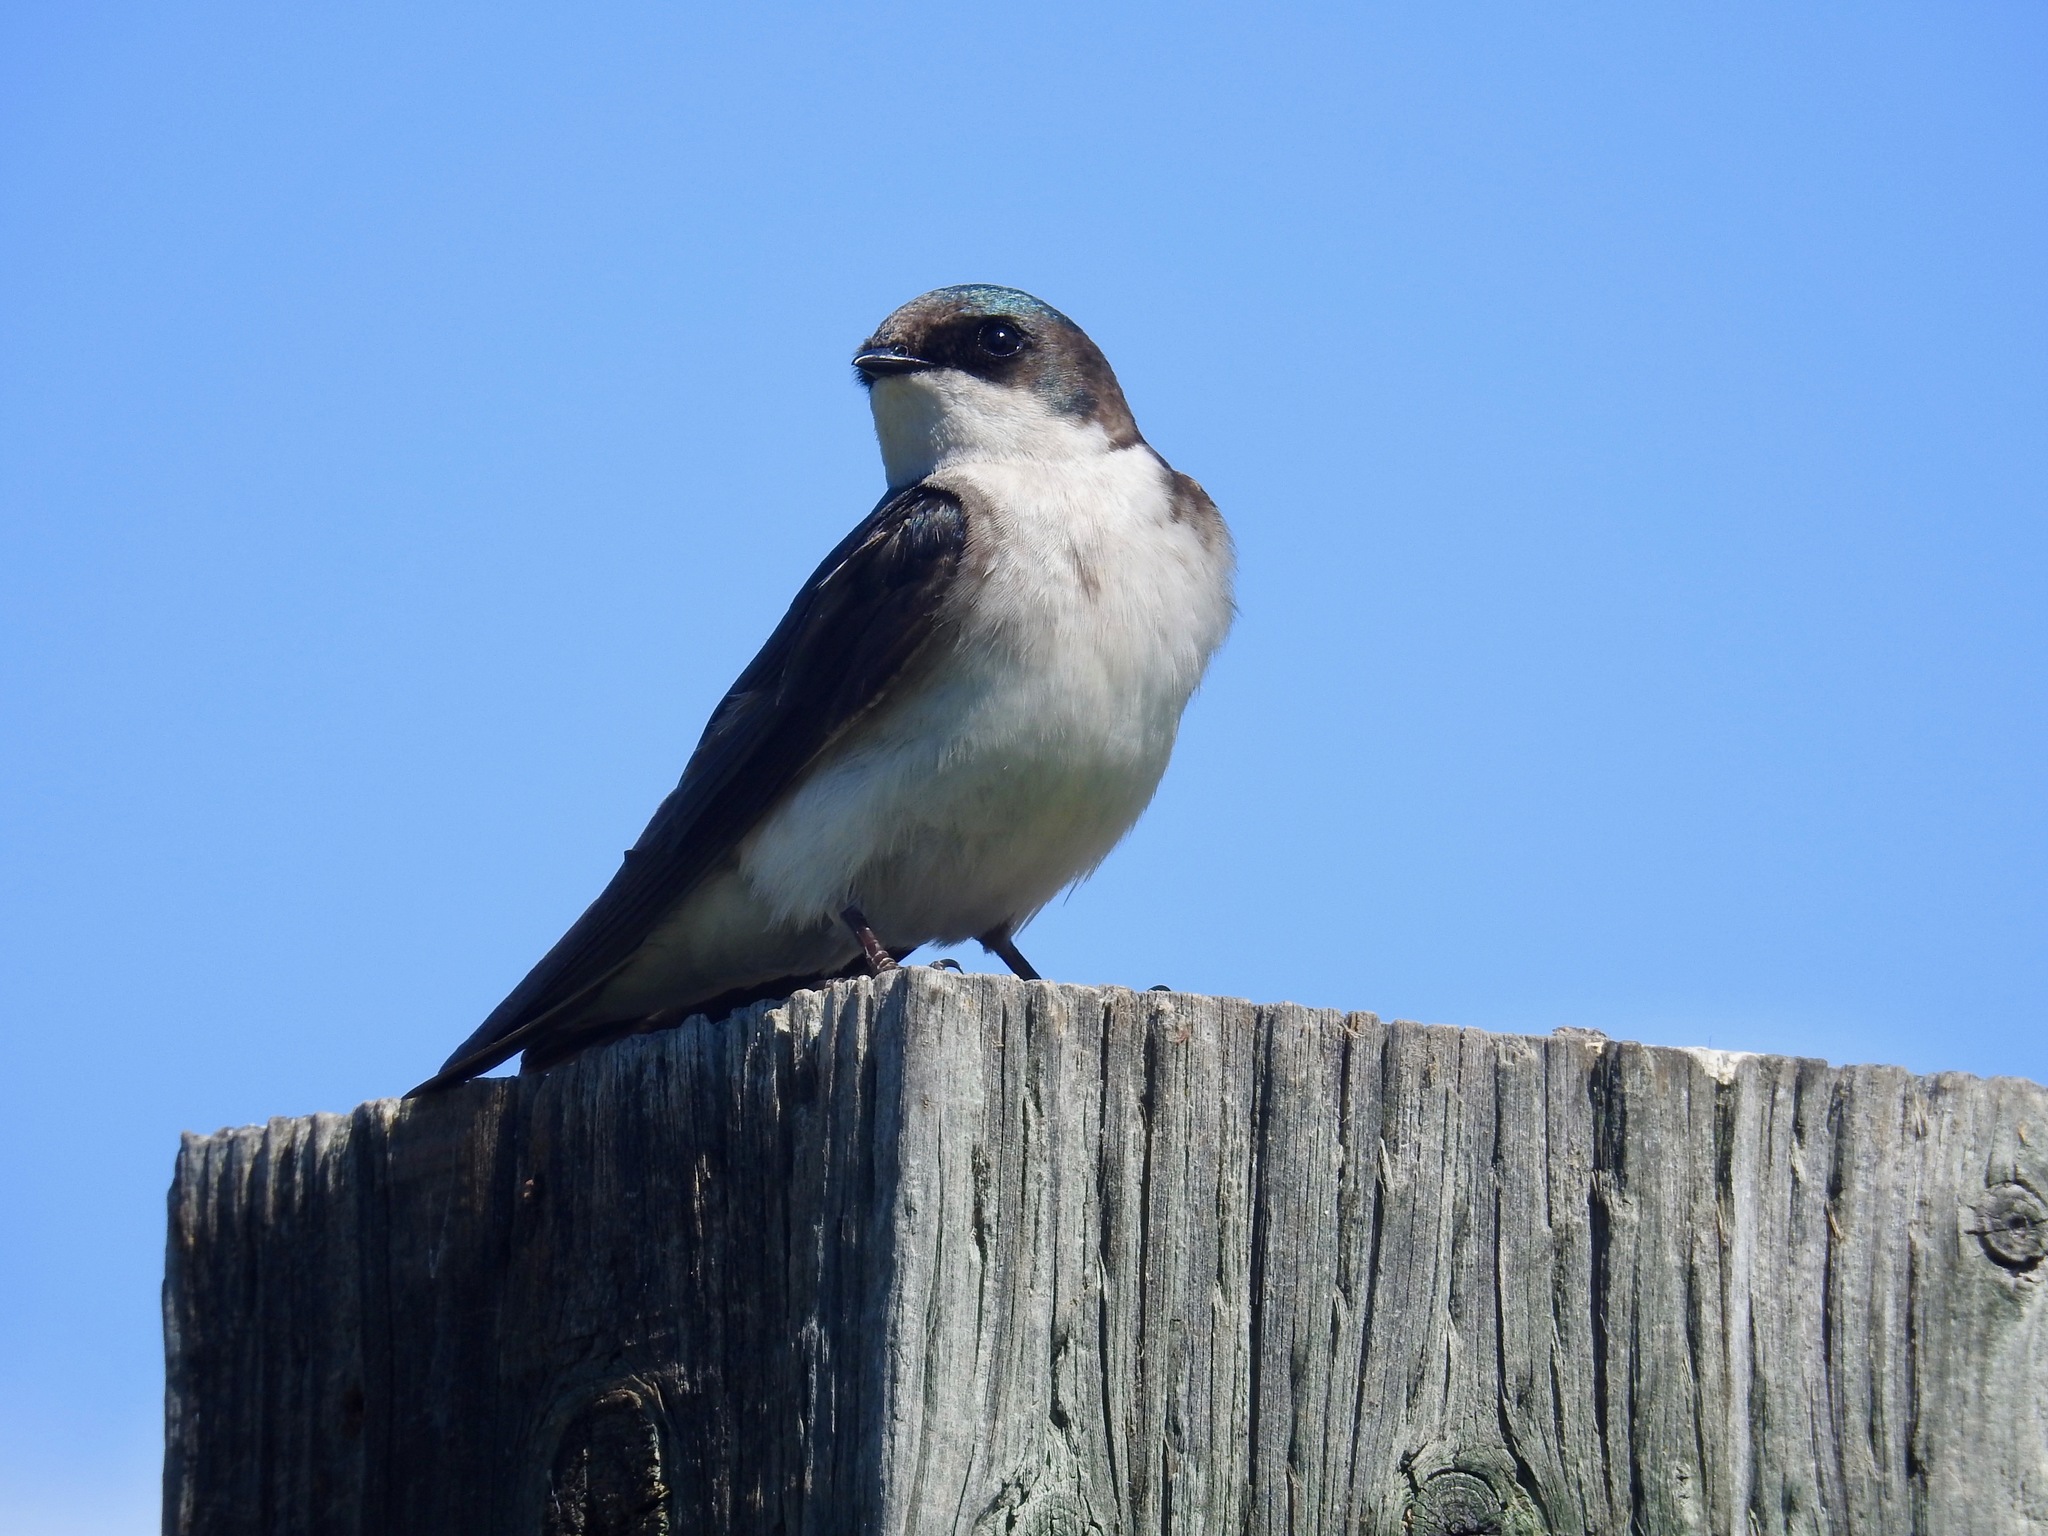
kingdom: Animalia
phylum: Chordata
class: Aves
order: Passeriformes
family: Hirundinidae
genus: Tachycineta
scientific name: Tachycineta bicolor
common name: Tree swallow
